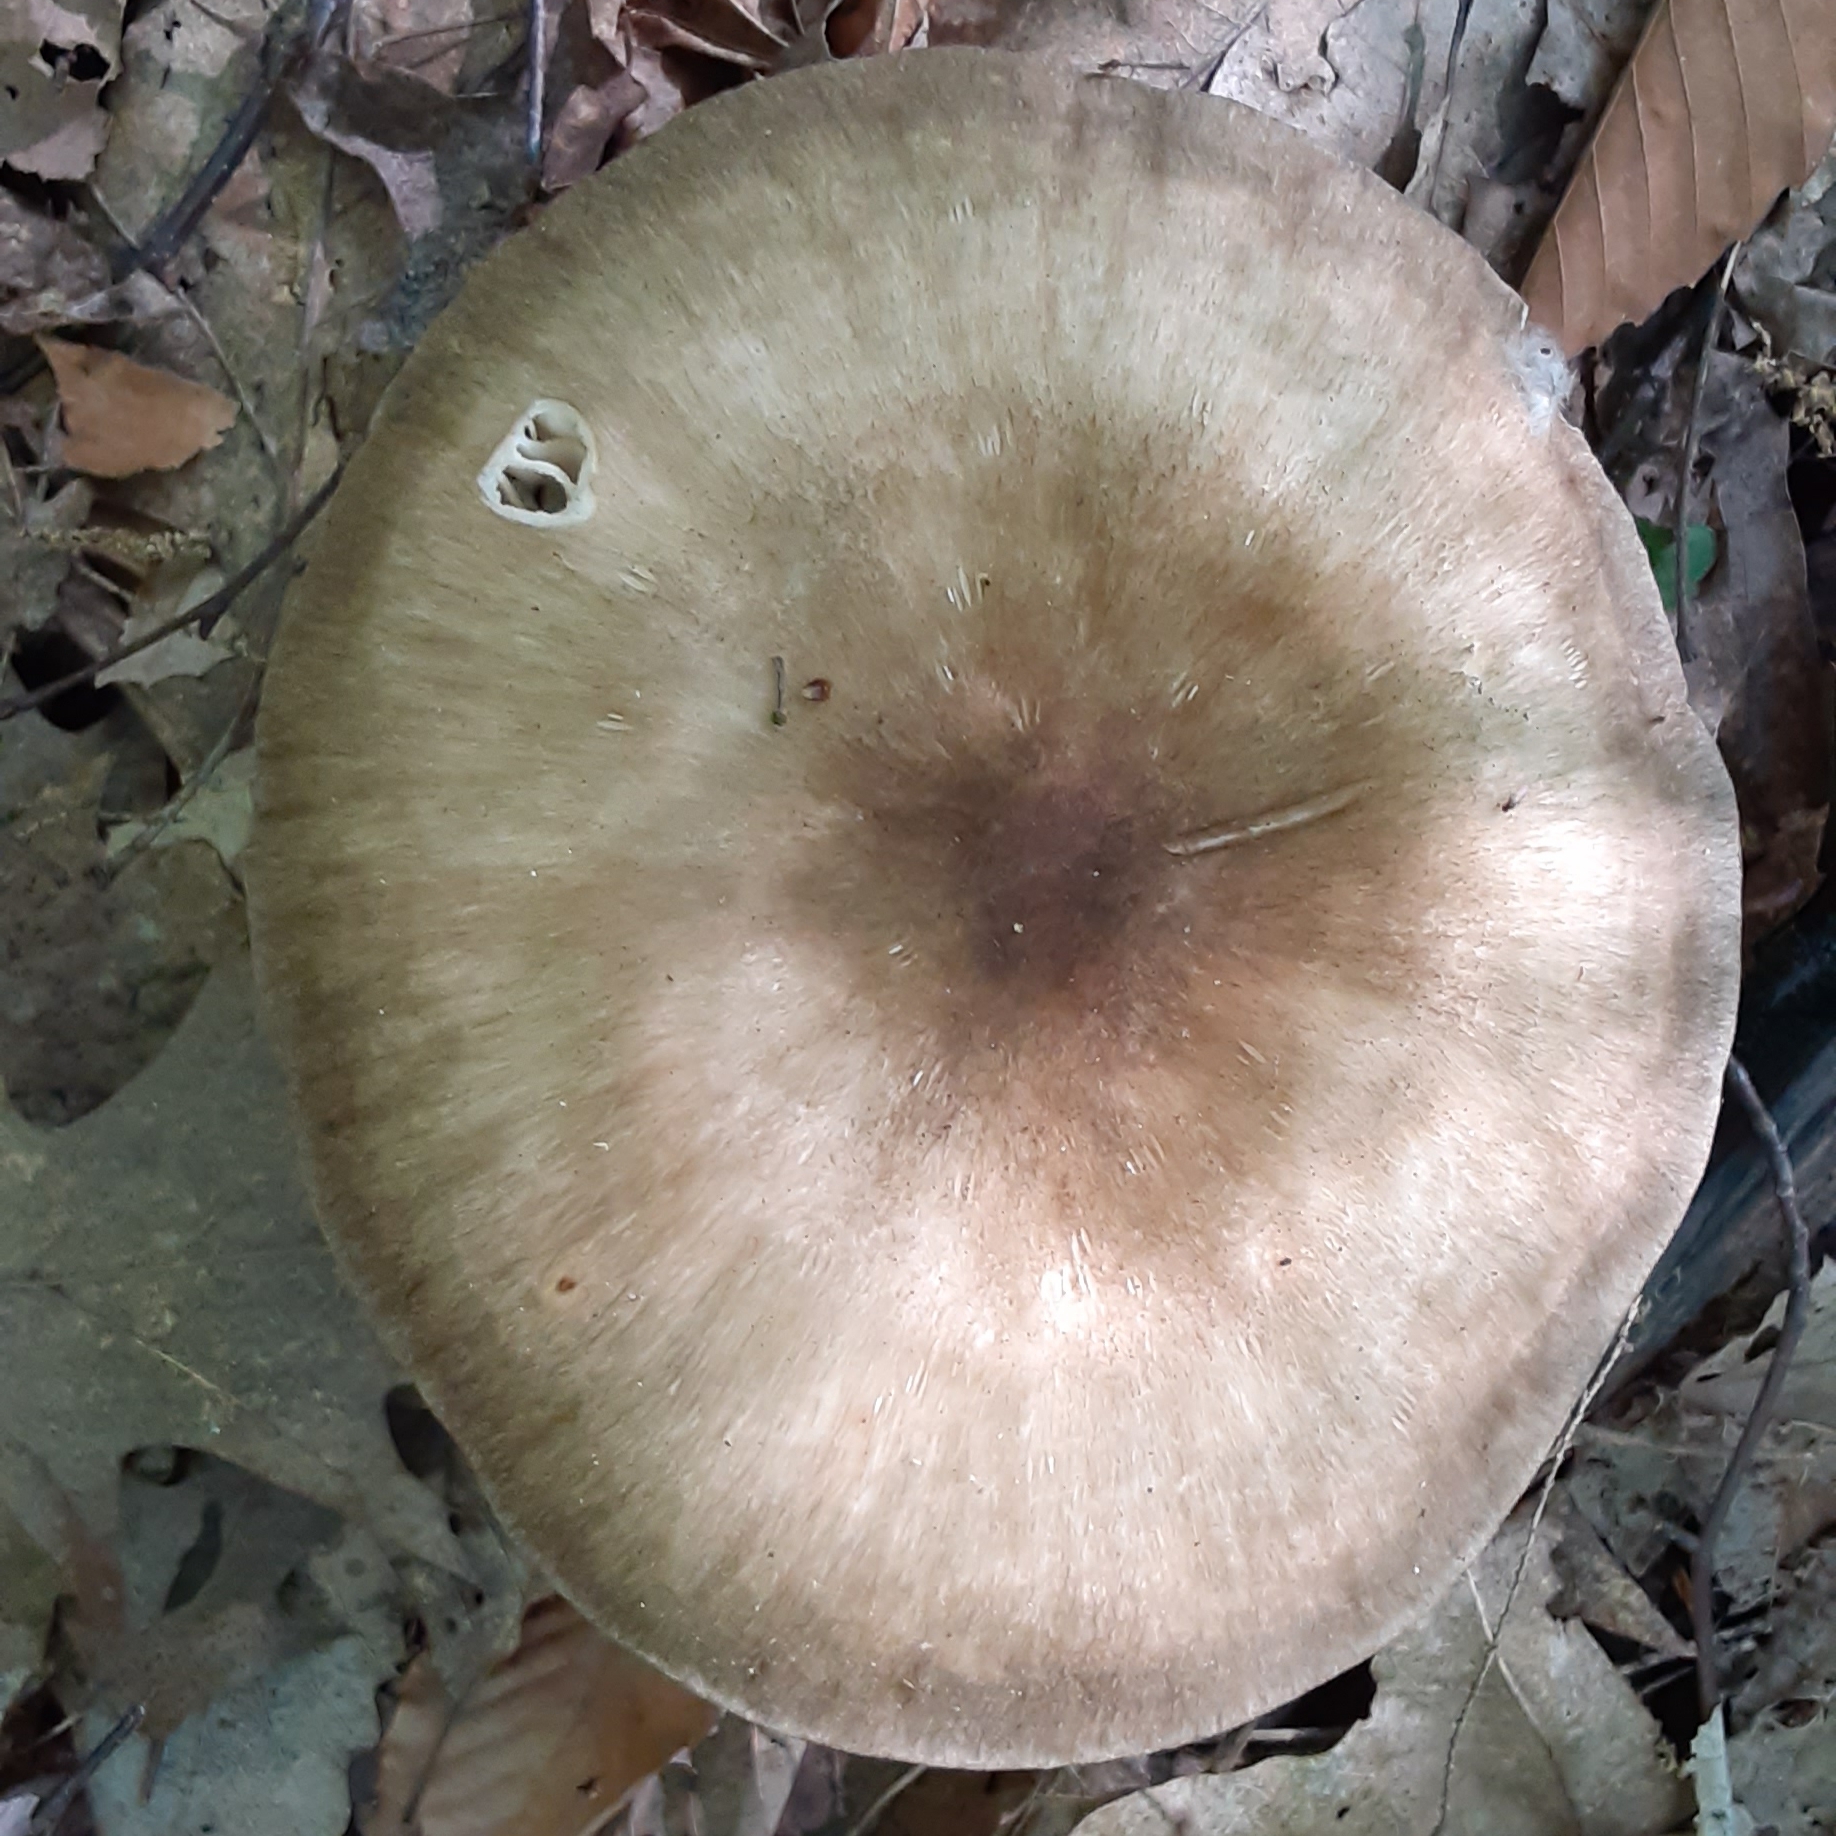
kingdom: Fungi
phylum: Basidiomycota
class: Agaricomycetes
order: Agaricales
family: Tricholomataceae
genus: Megacollybia
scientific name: Megacollybia rodmanii
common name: Eastern american platterful mushroom
